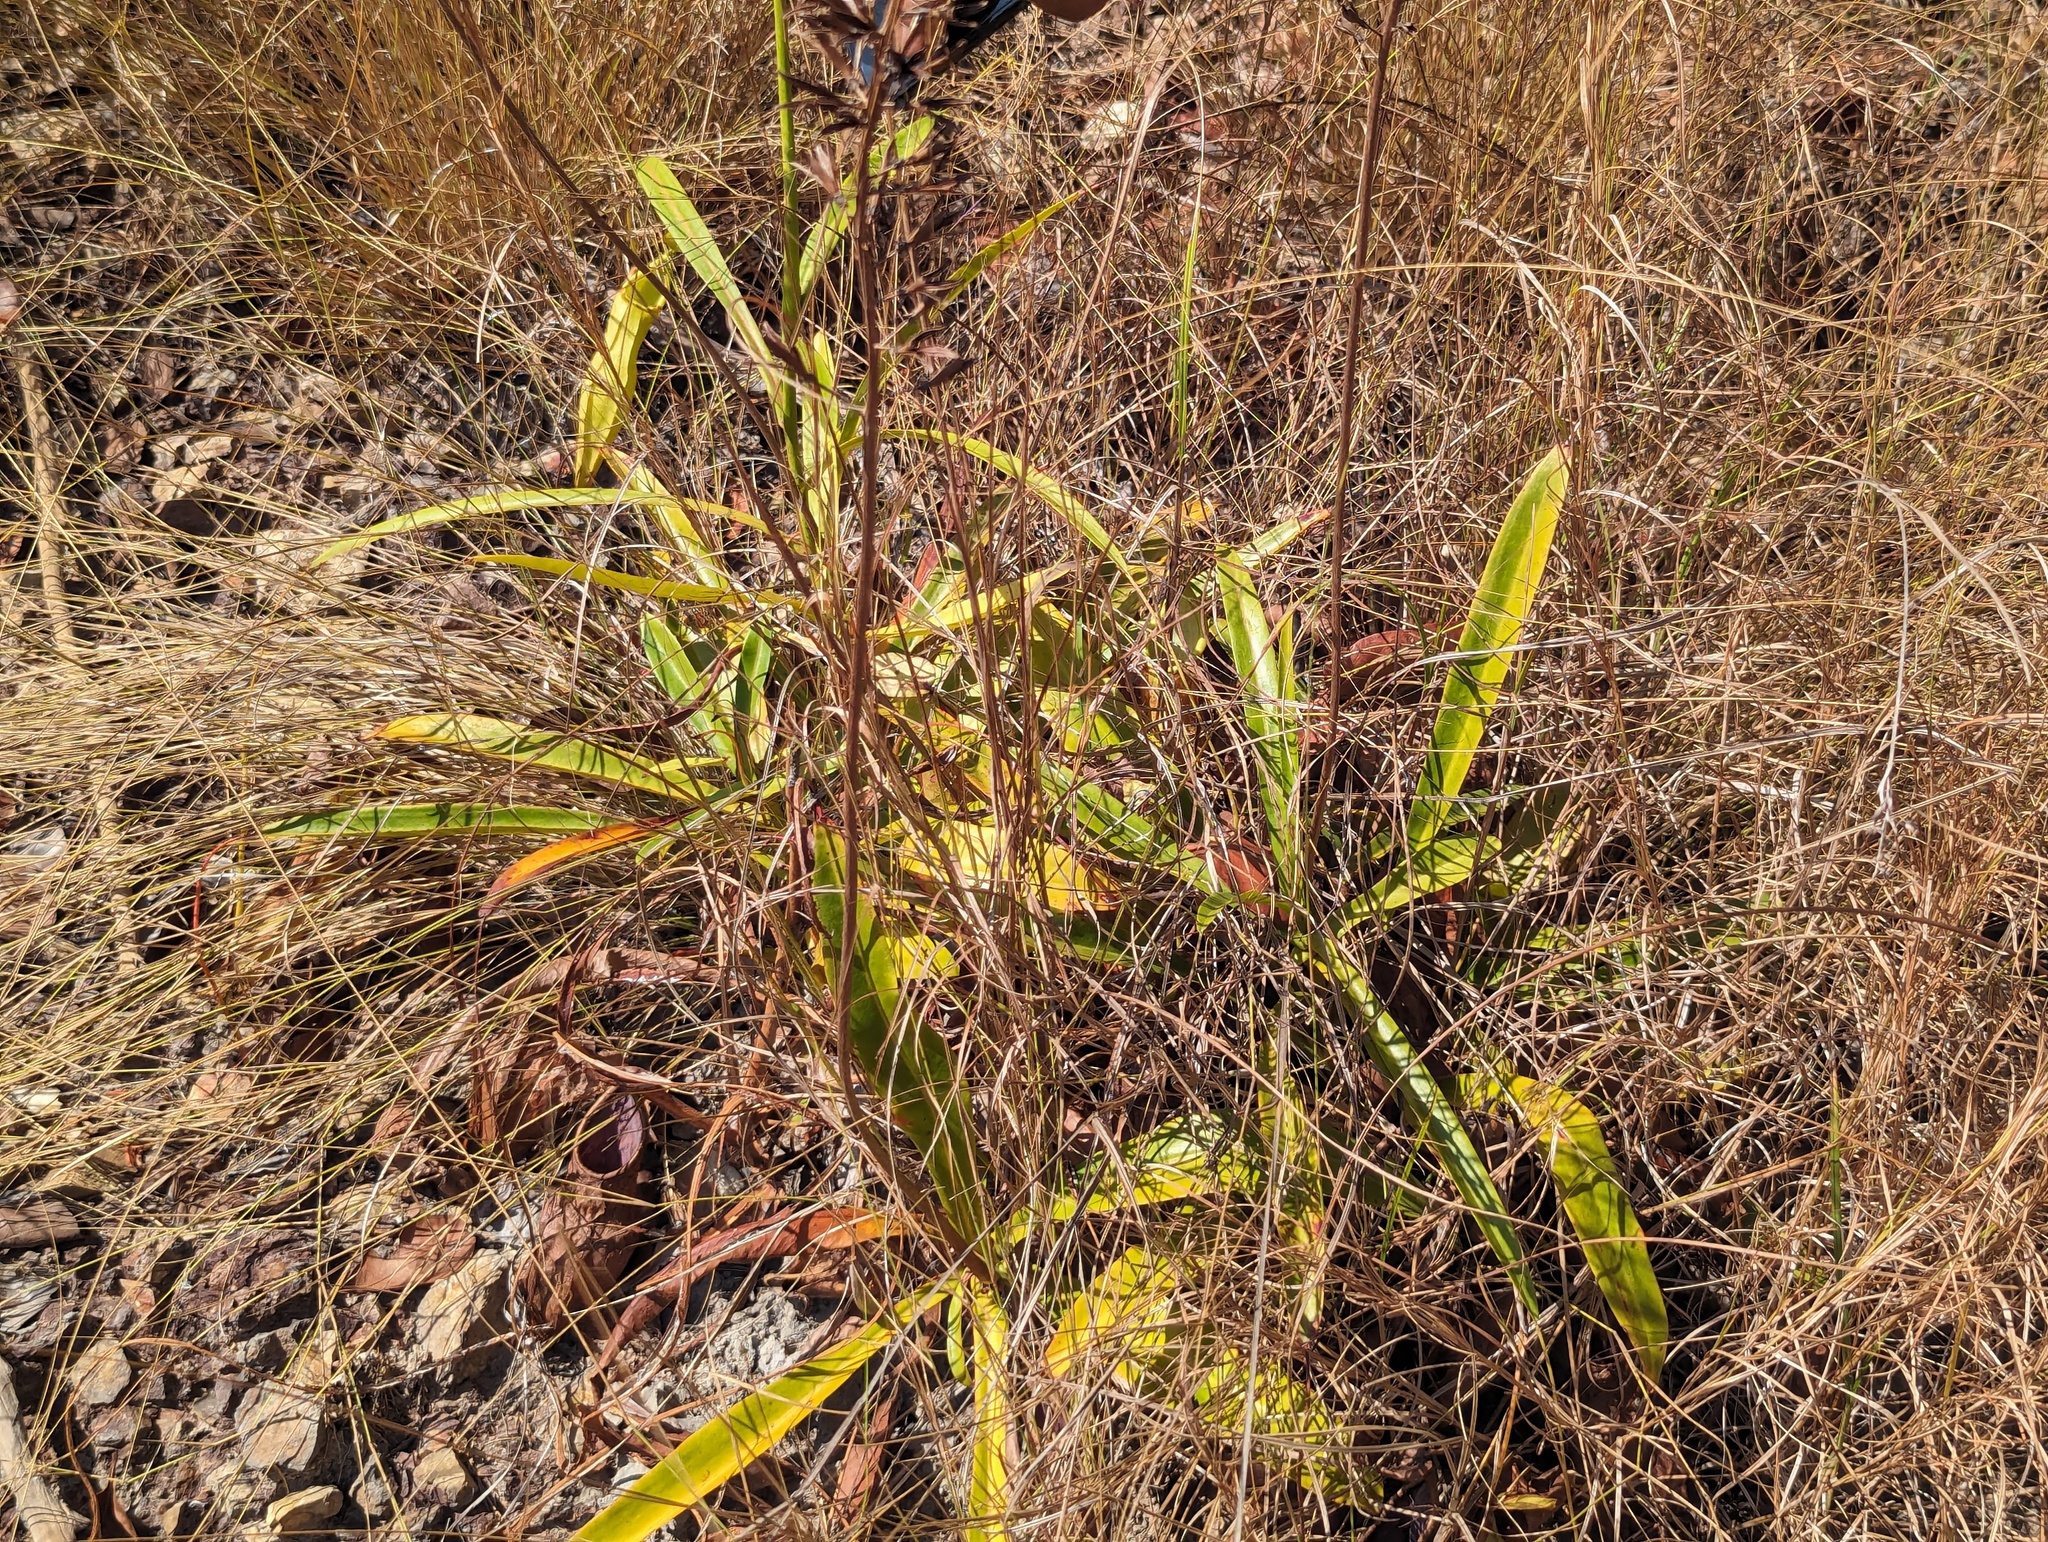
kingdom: Plantae
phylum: Tracheophyta
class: Magnoliopsida
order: Caryophyllales
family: Nepenthaceae
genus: Nepenthes
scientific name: Nepenthes abalata
